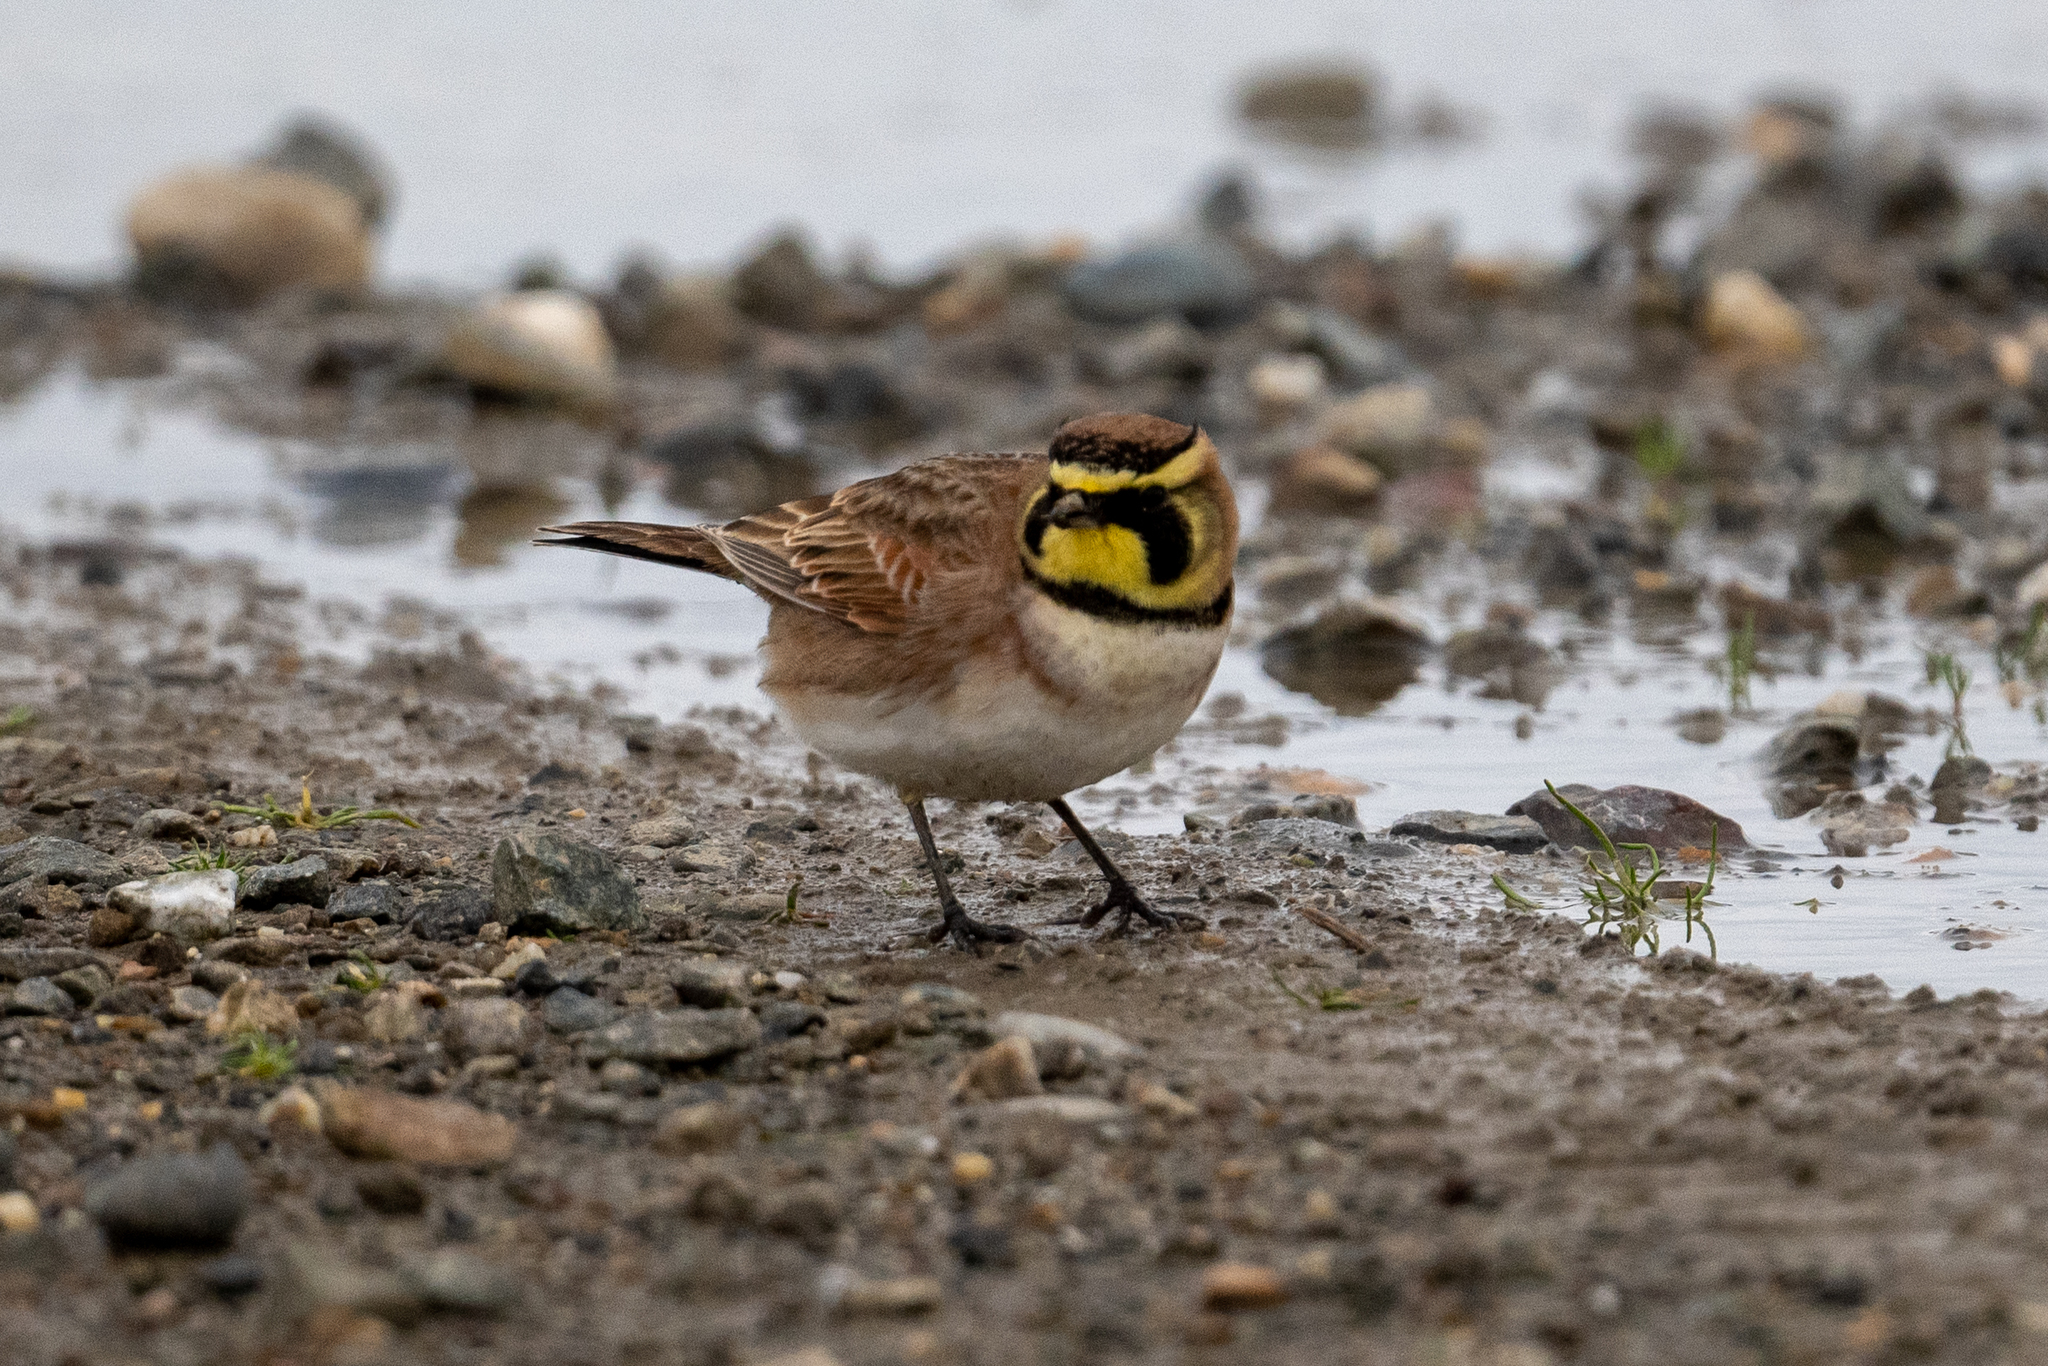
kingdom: Animalia
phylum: Chordata
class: Aves
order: Passeriformes
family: Alaudidae
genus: Eremophila
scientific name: Eremophila alpestris
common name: Horned lark
